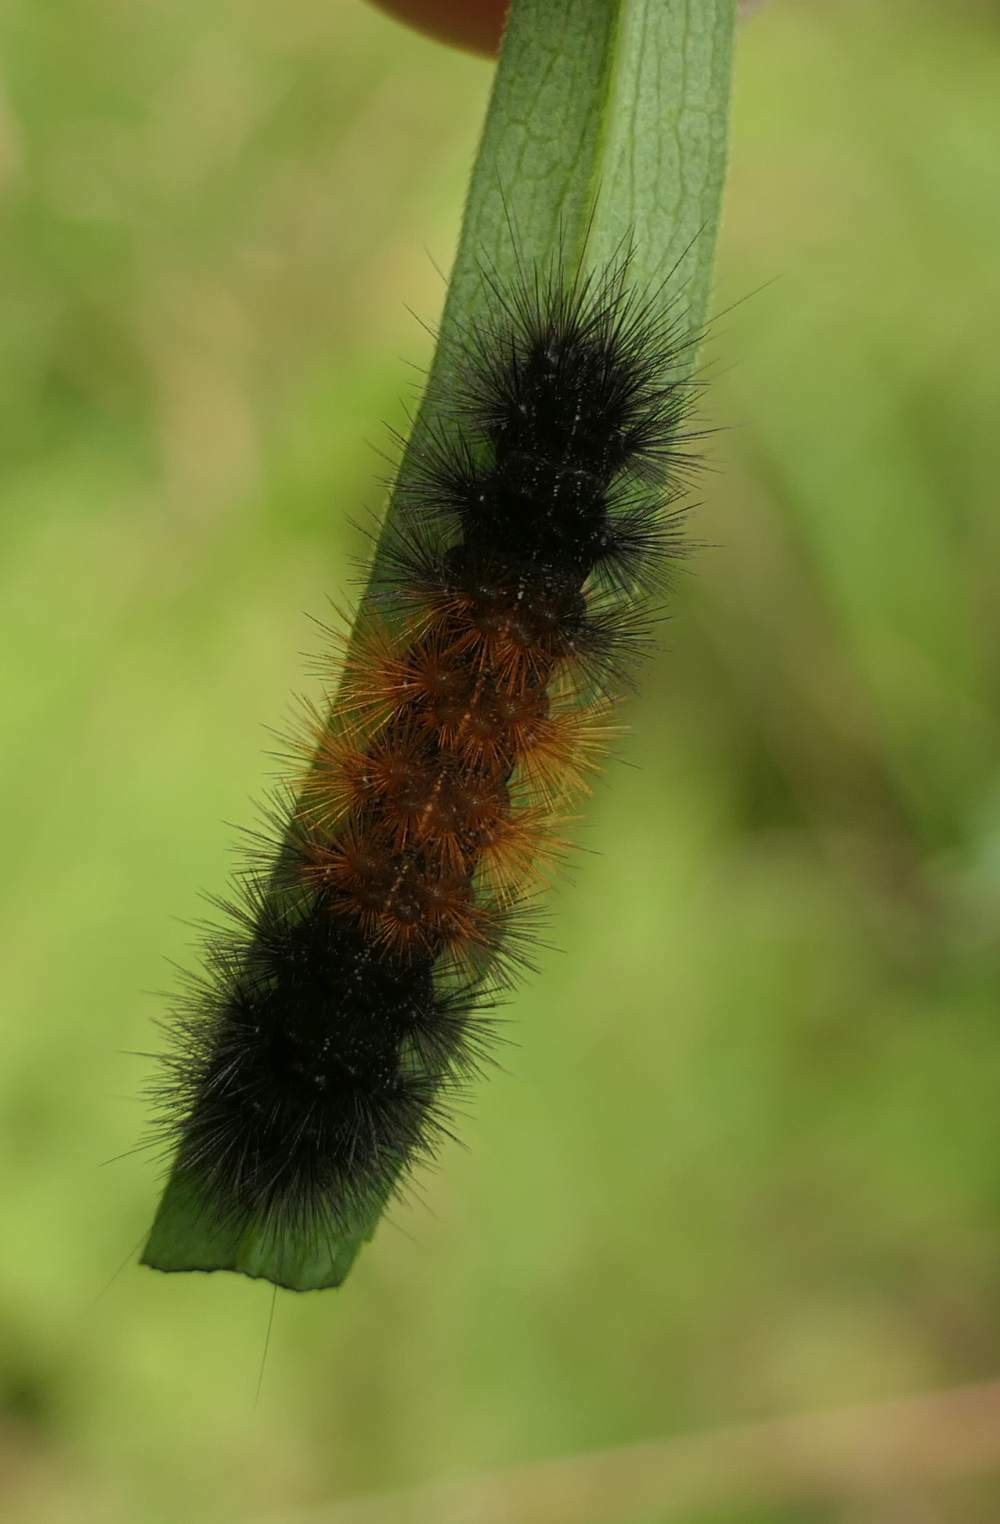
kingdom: Animalia
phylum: Arthropoda
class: Insecta
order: Lepidoptera
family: Erebidae
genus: Pyrrharctia
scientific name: Pyrrharctia isabella
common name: Isabella tiger moth
